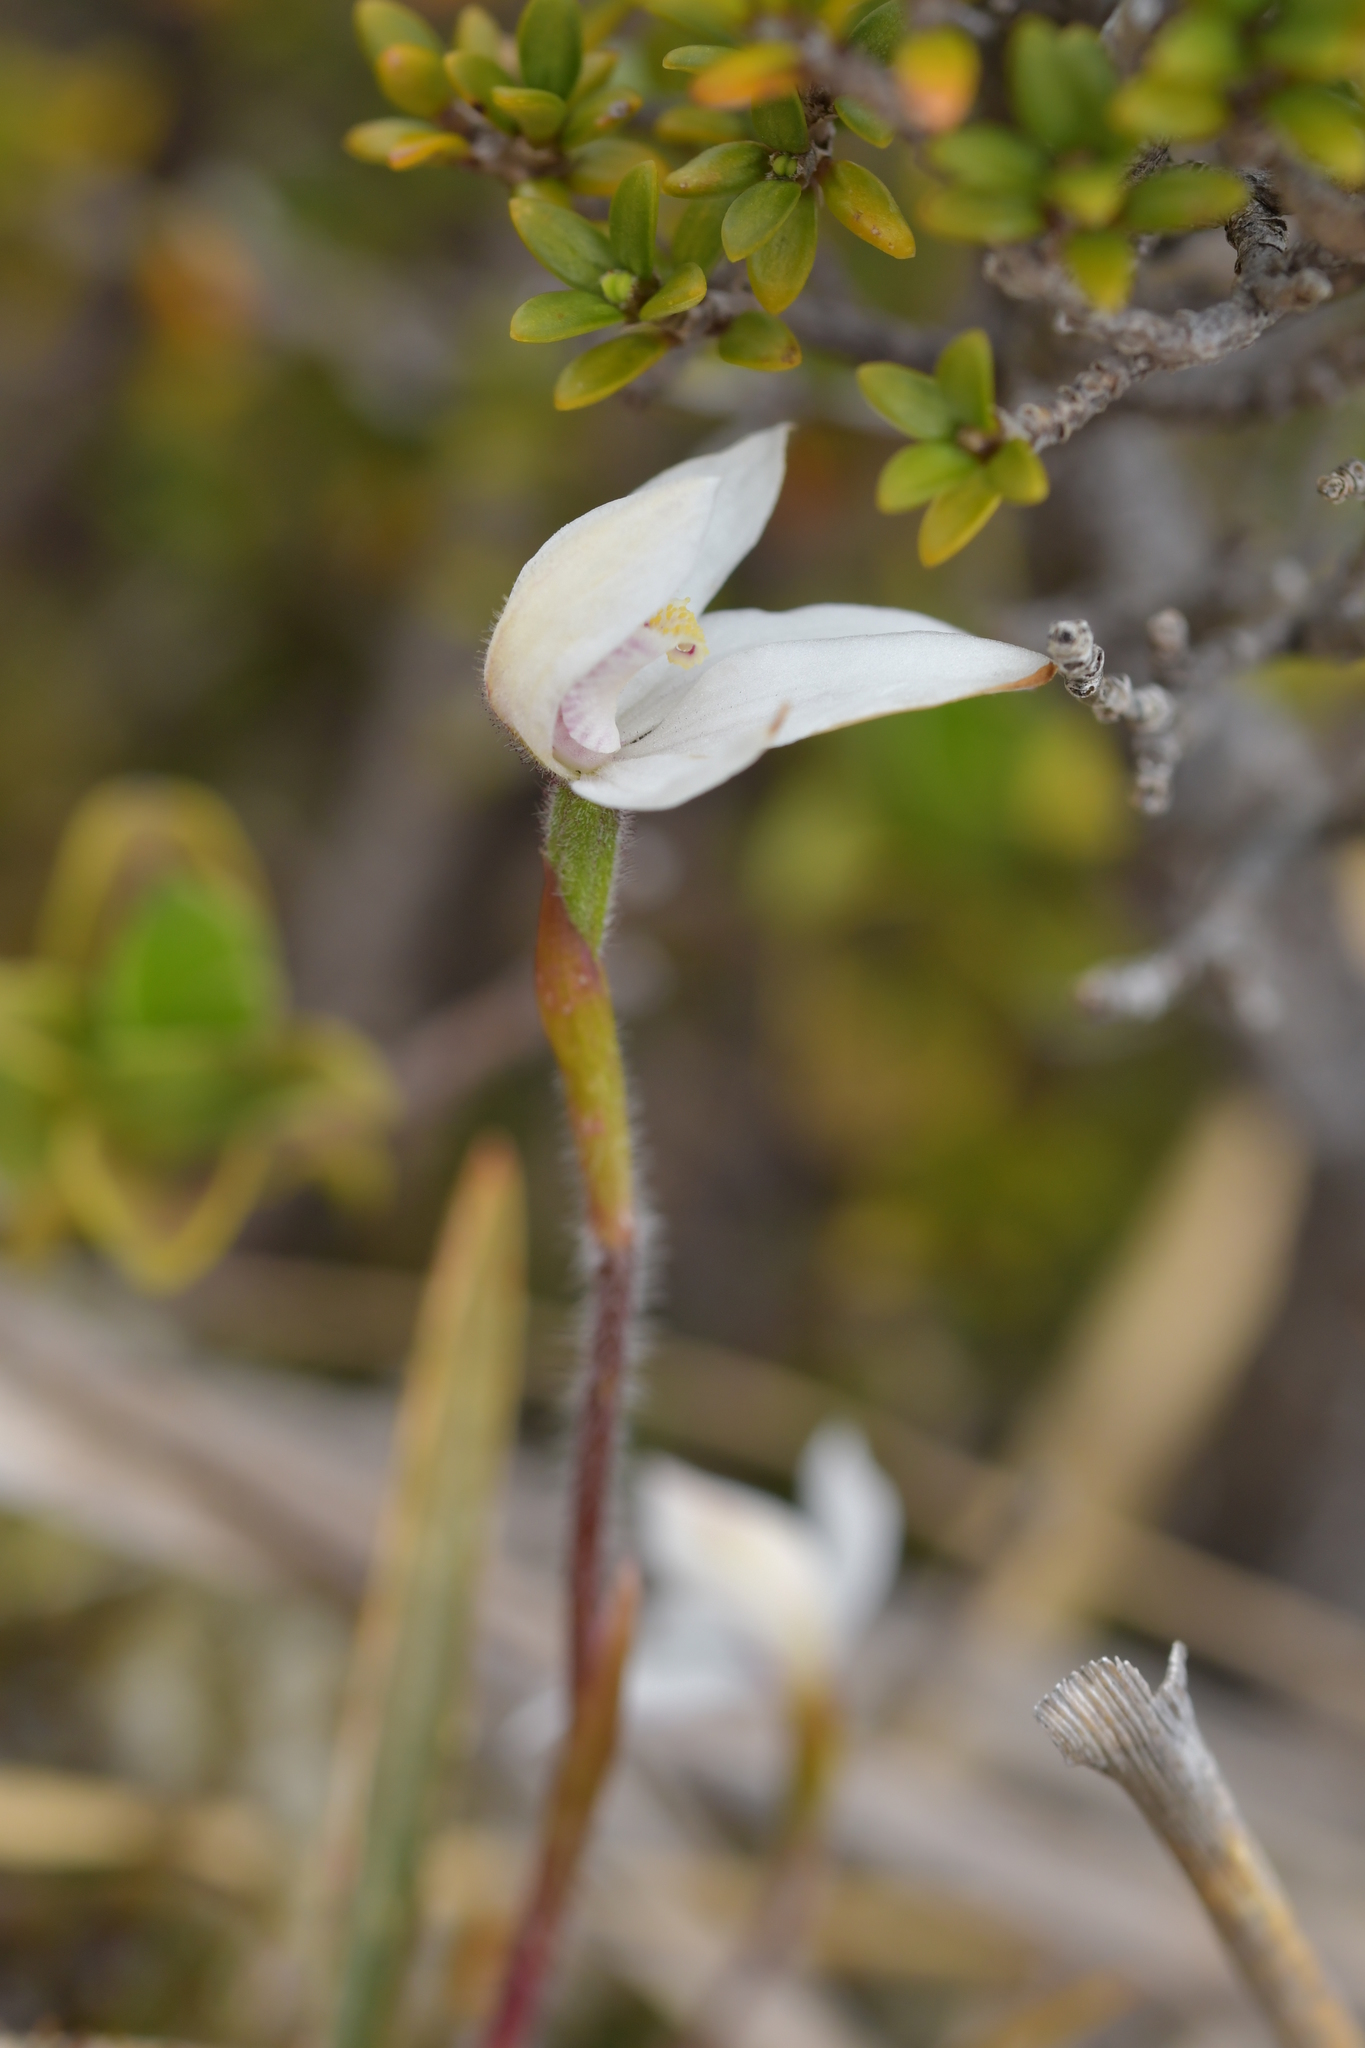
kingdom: Plantae
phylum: Tracheophyta
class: Liliopsida
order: Asparagales
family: Orchidaceae
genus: Caladenia
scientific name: Caladenia lyallii
